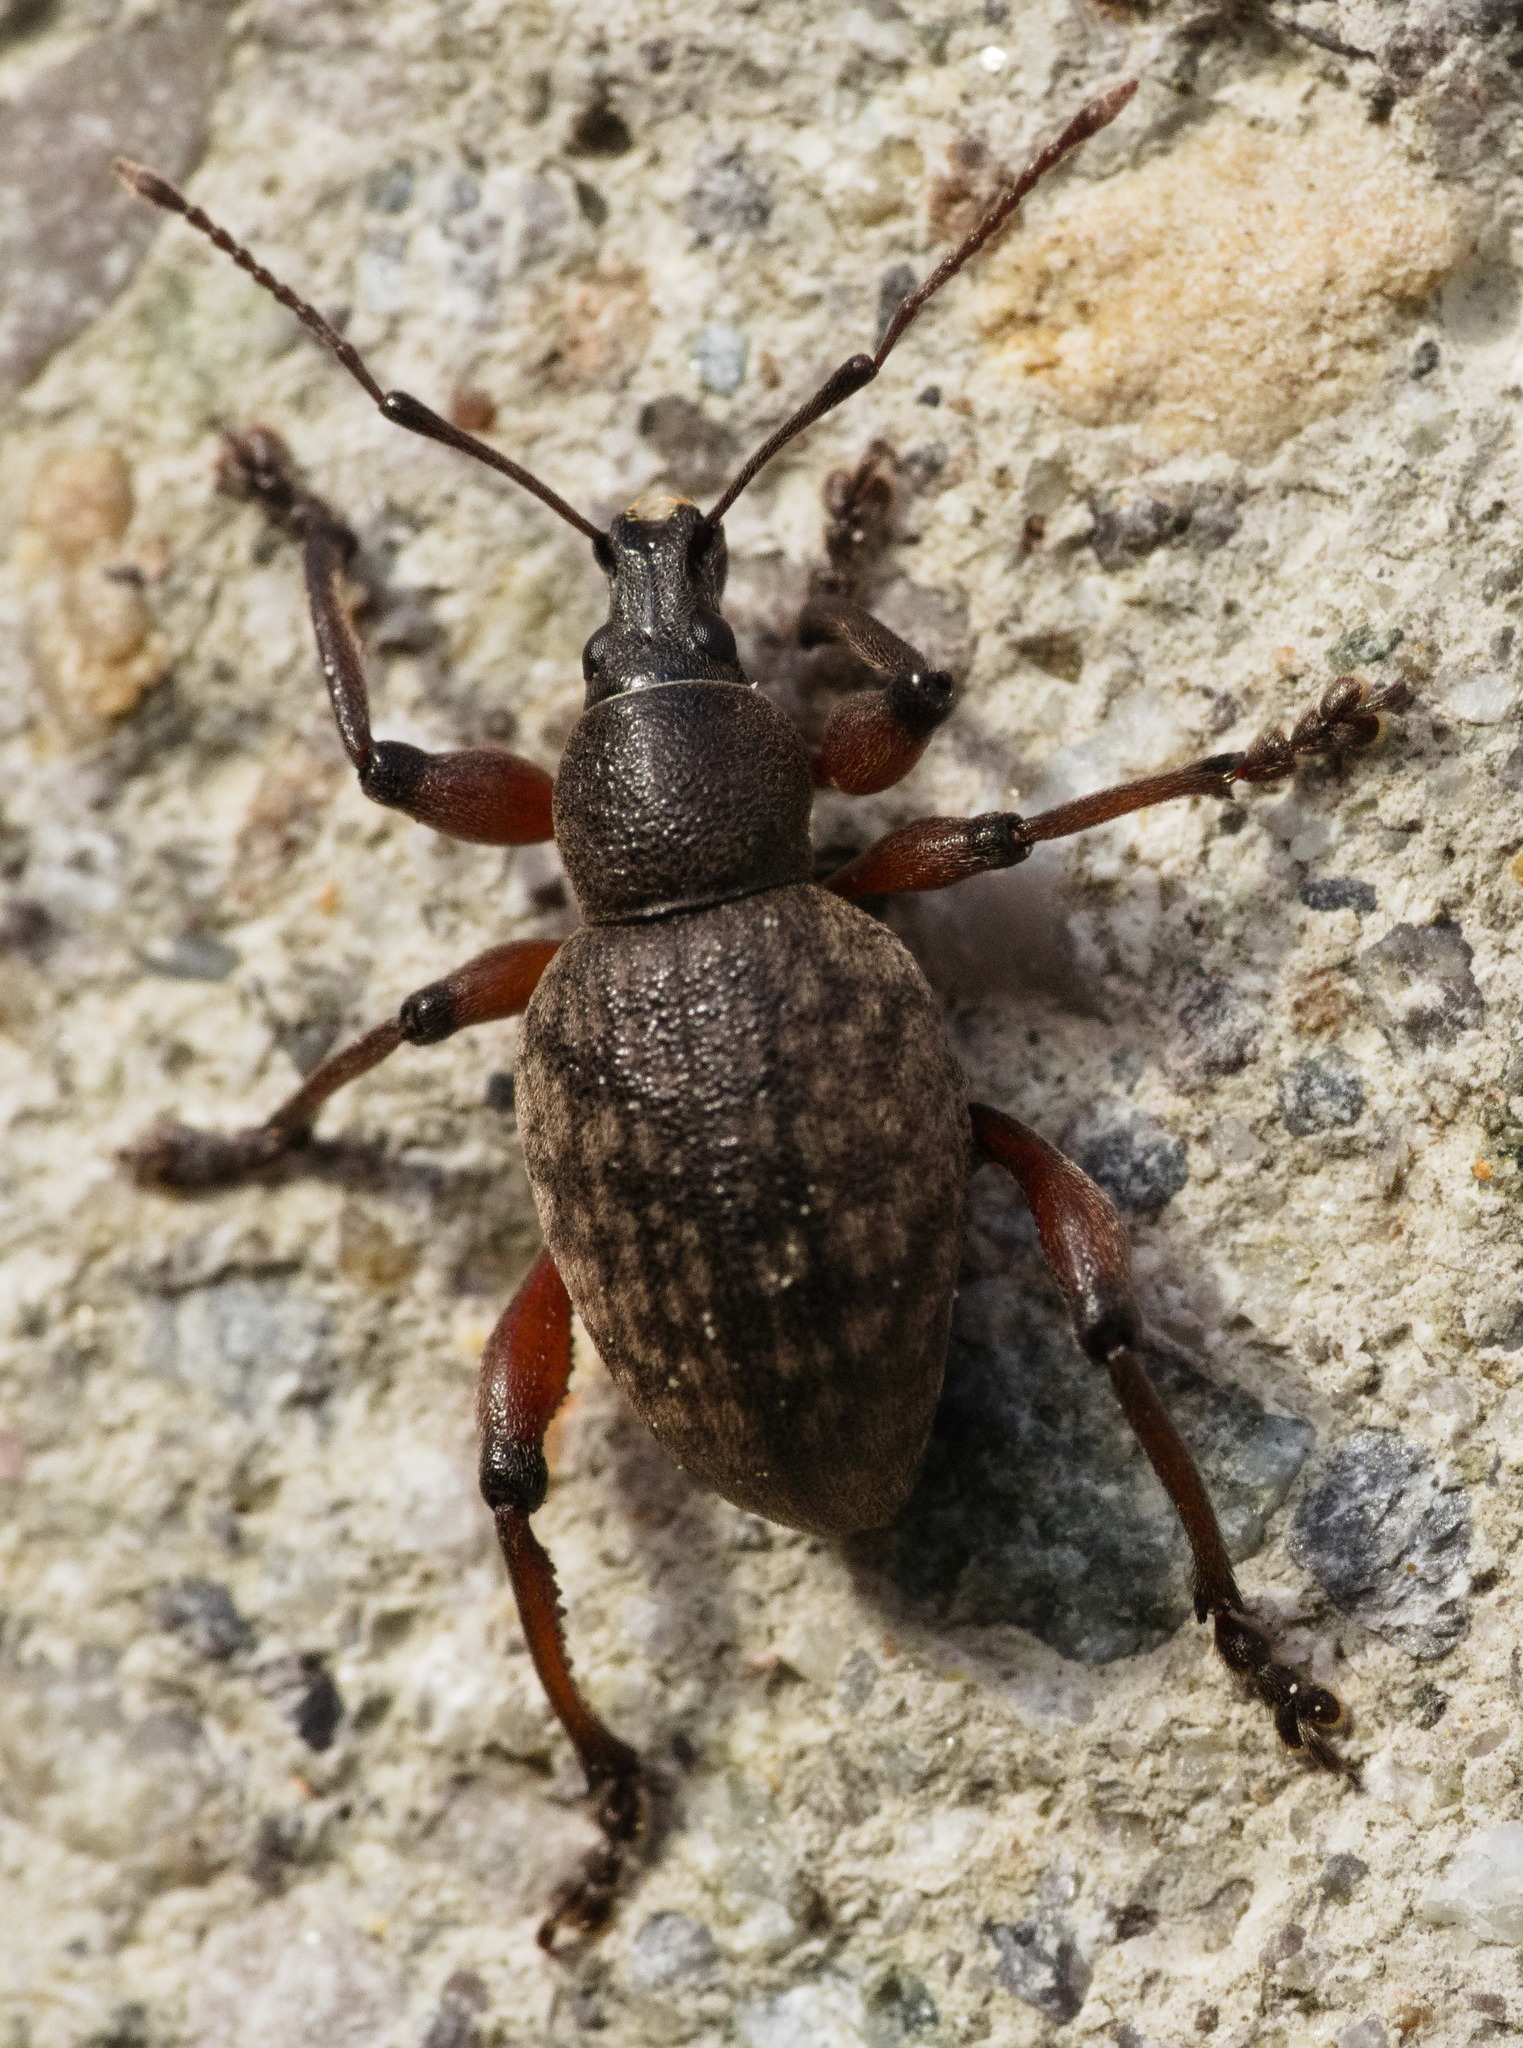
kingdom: Animalia
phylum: Arthropoda
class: Insecta
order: Coleoptera
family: Curculionidae
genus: Dodecastichus
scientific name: Dodecastichus geniculatus
